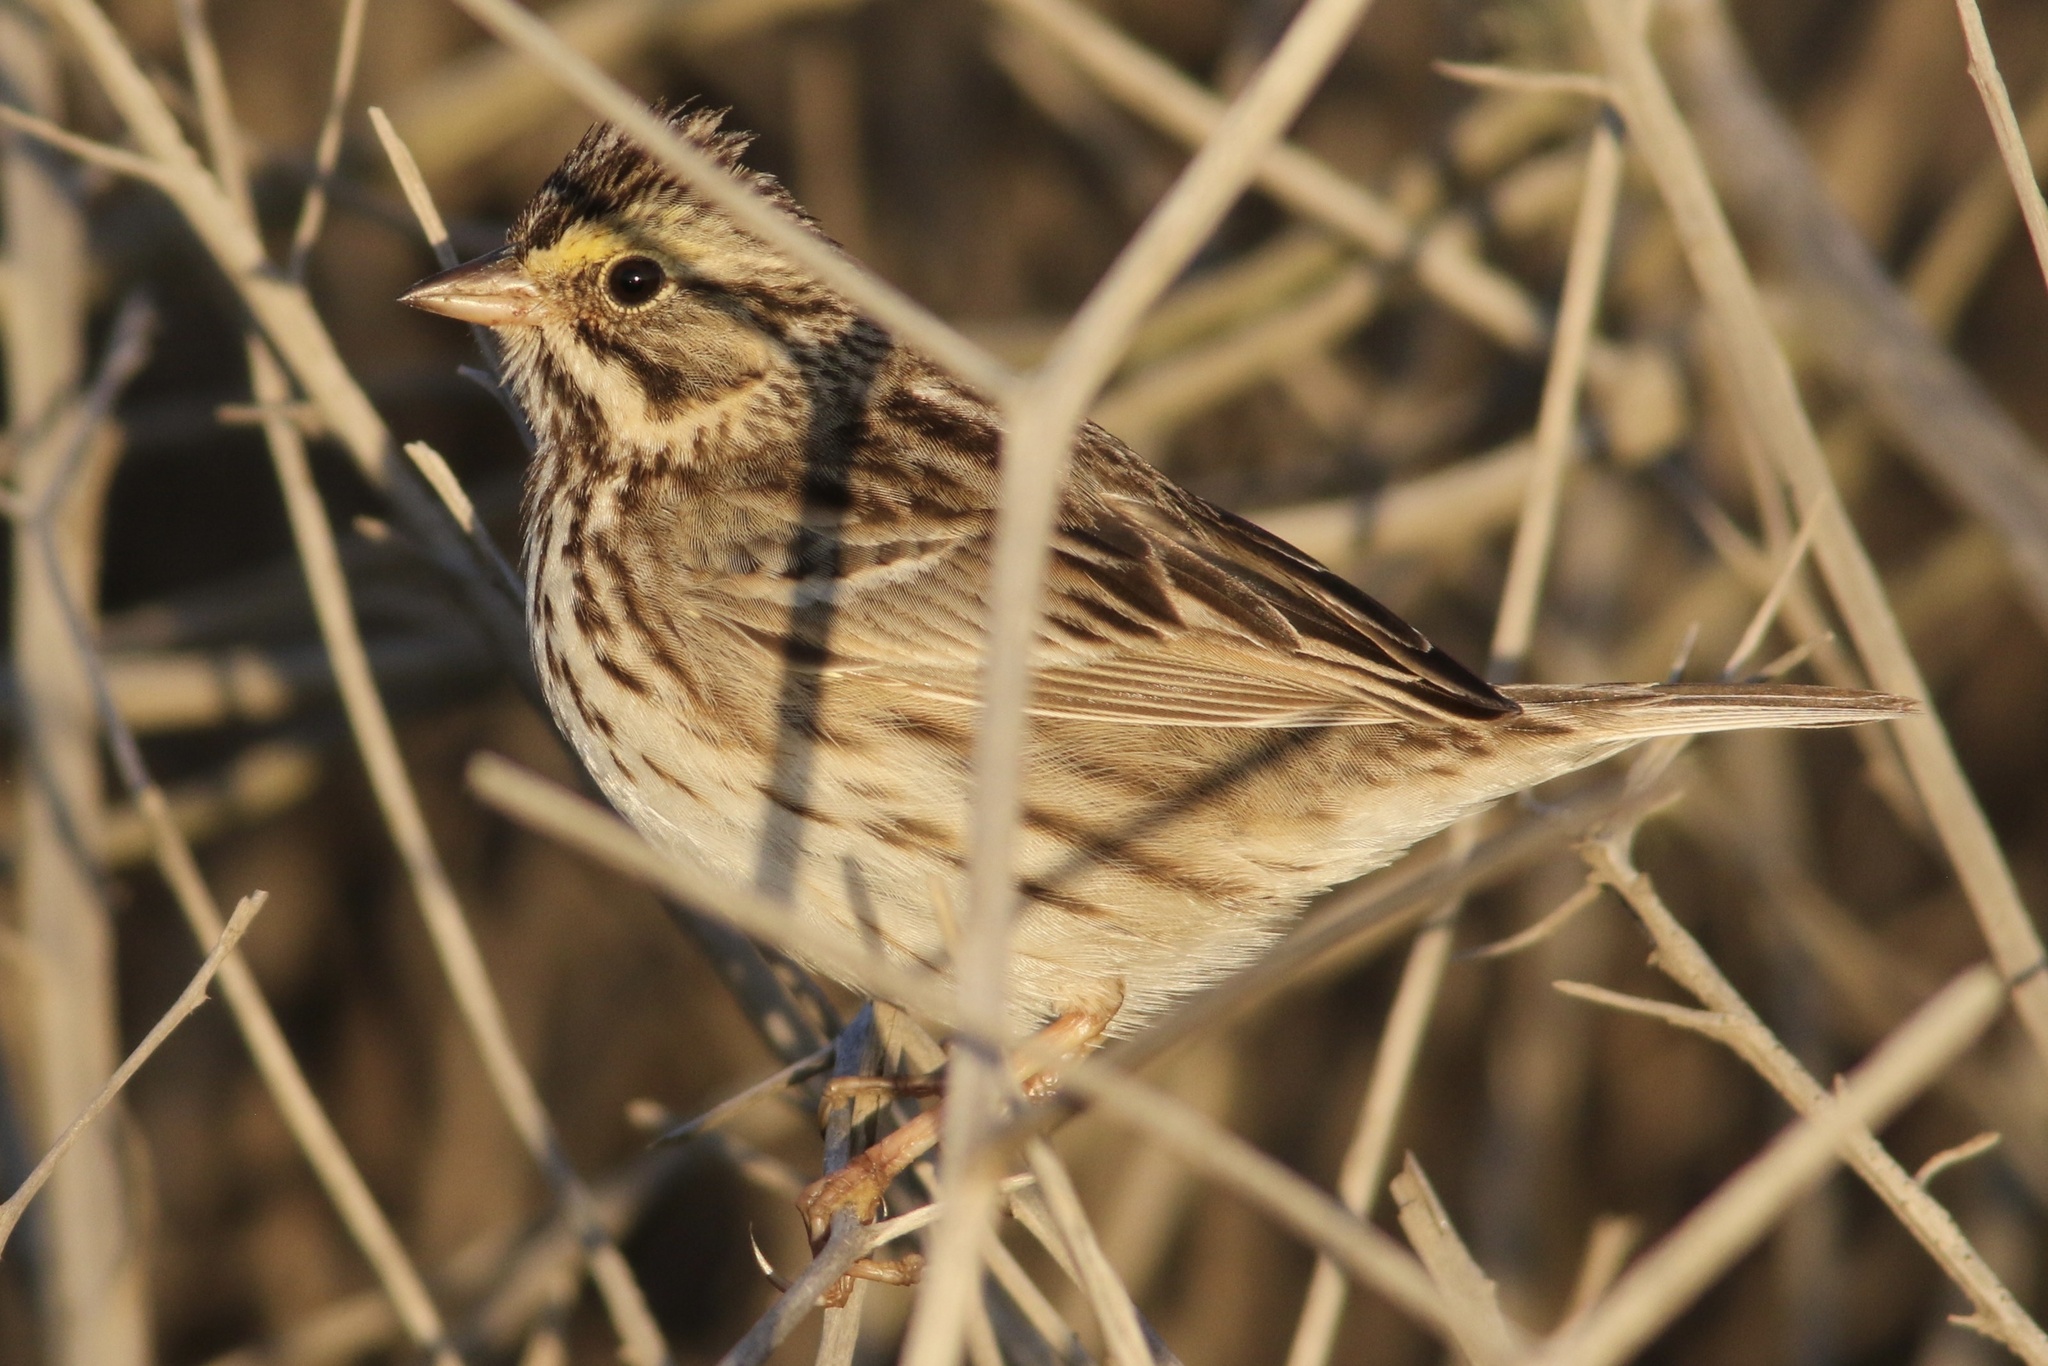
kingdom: Animalia
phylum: Chordata
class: Aves
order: Passeriformes
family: Passerellidae
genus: Passerculus
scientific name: Passerculus sandwichensis
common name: Savannah sparrow
